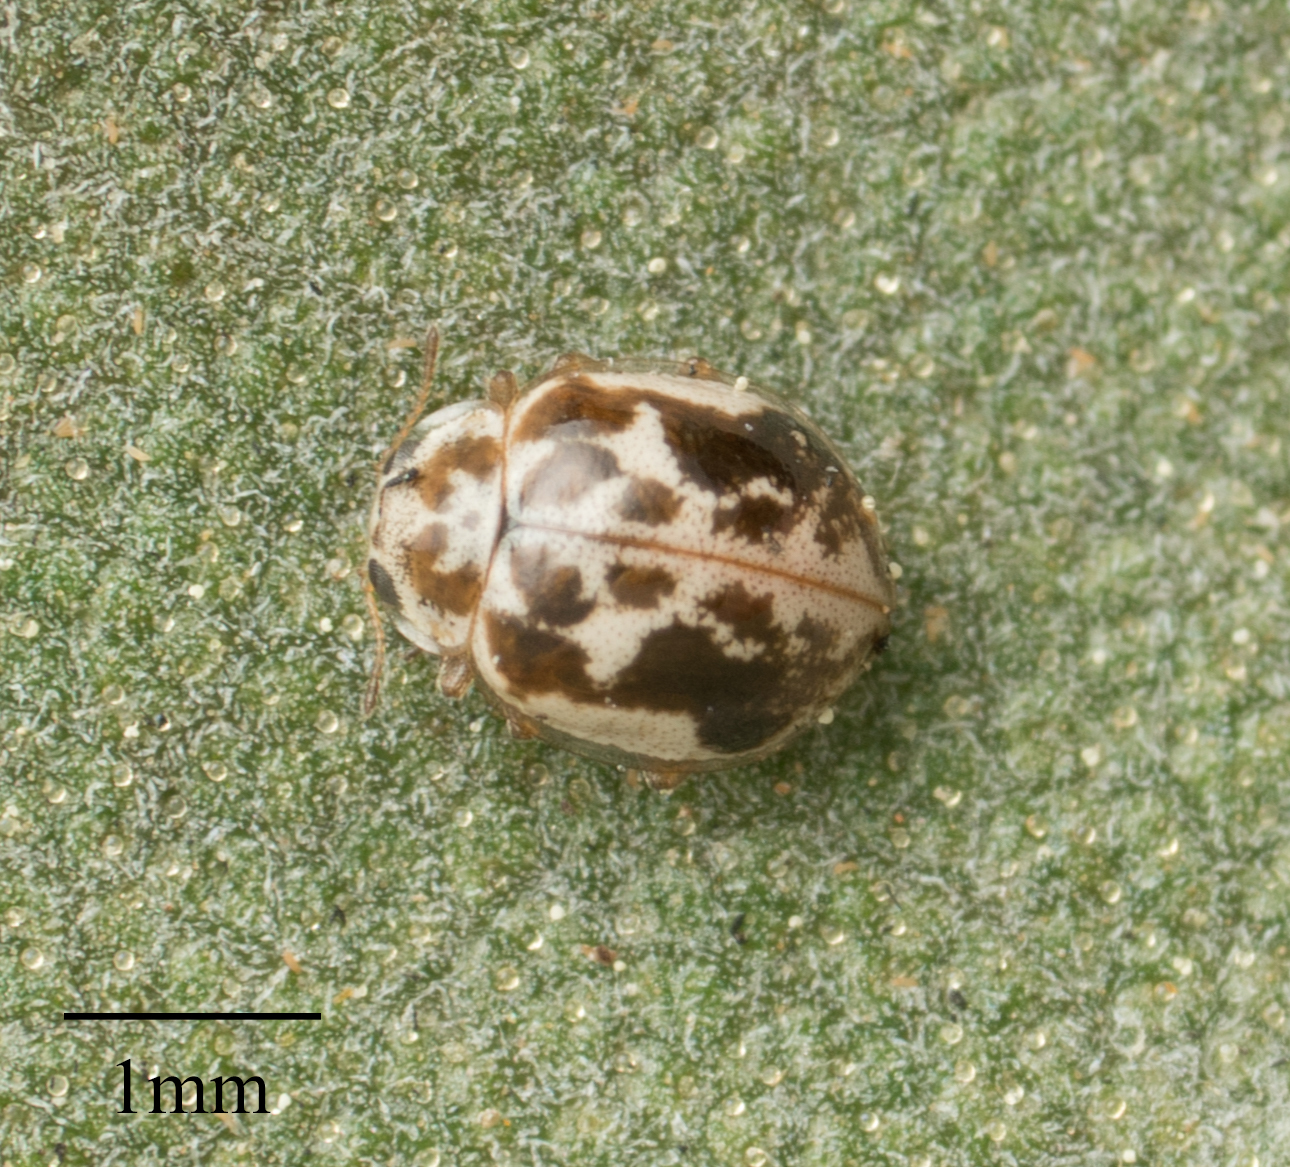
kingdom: Animalia
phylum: Arthropoda
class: Insecta
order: Coleoptera
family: Coccinellidae
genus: Psyllobora
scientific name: Psyllobora renifer
